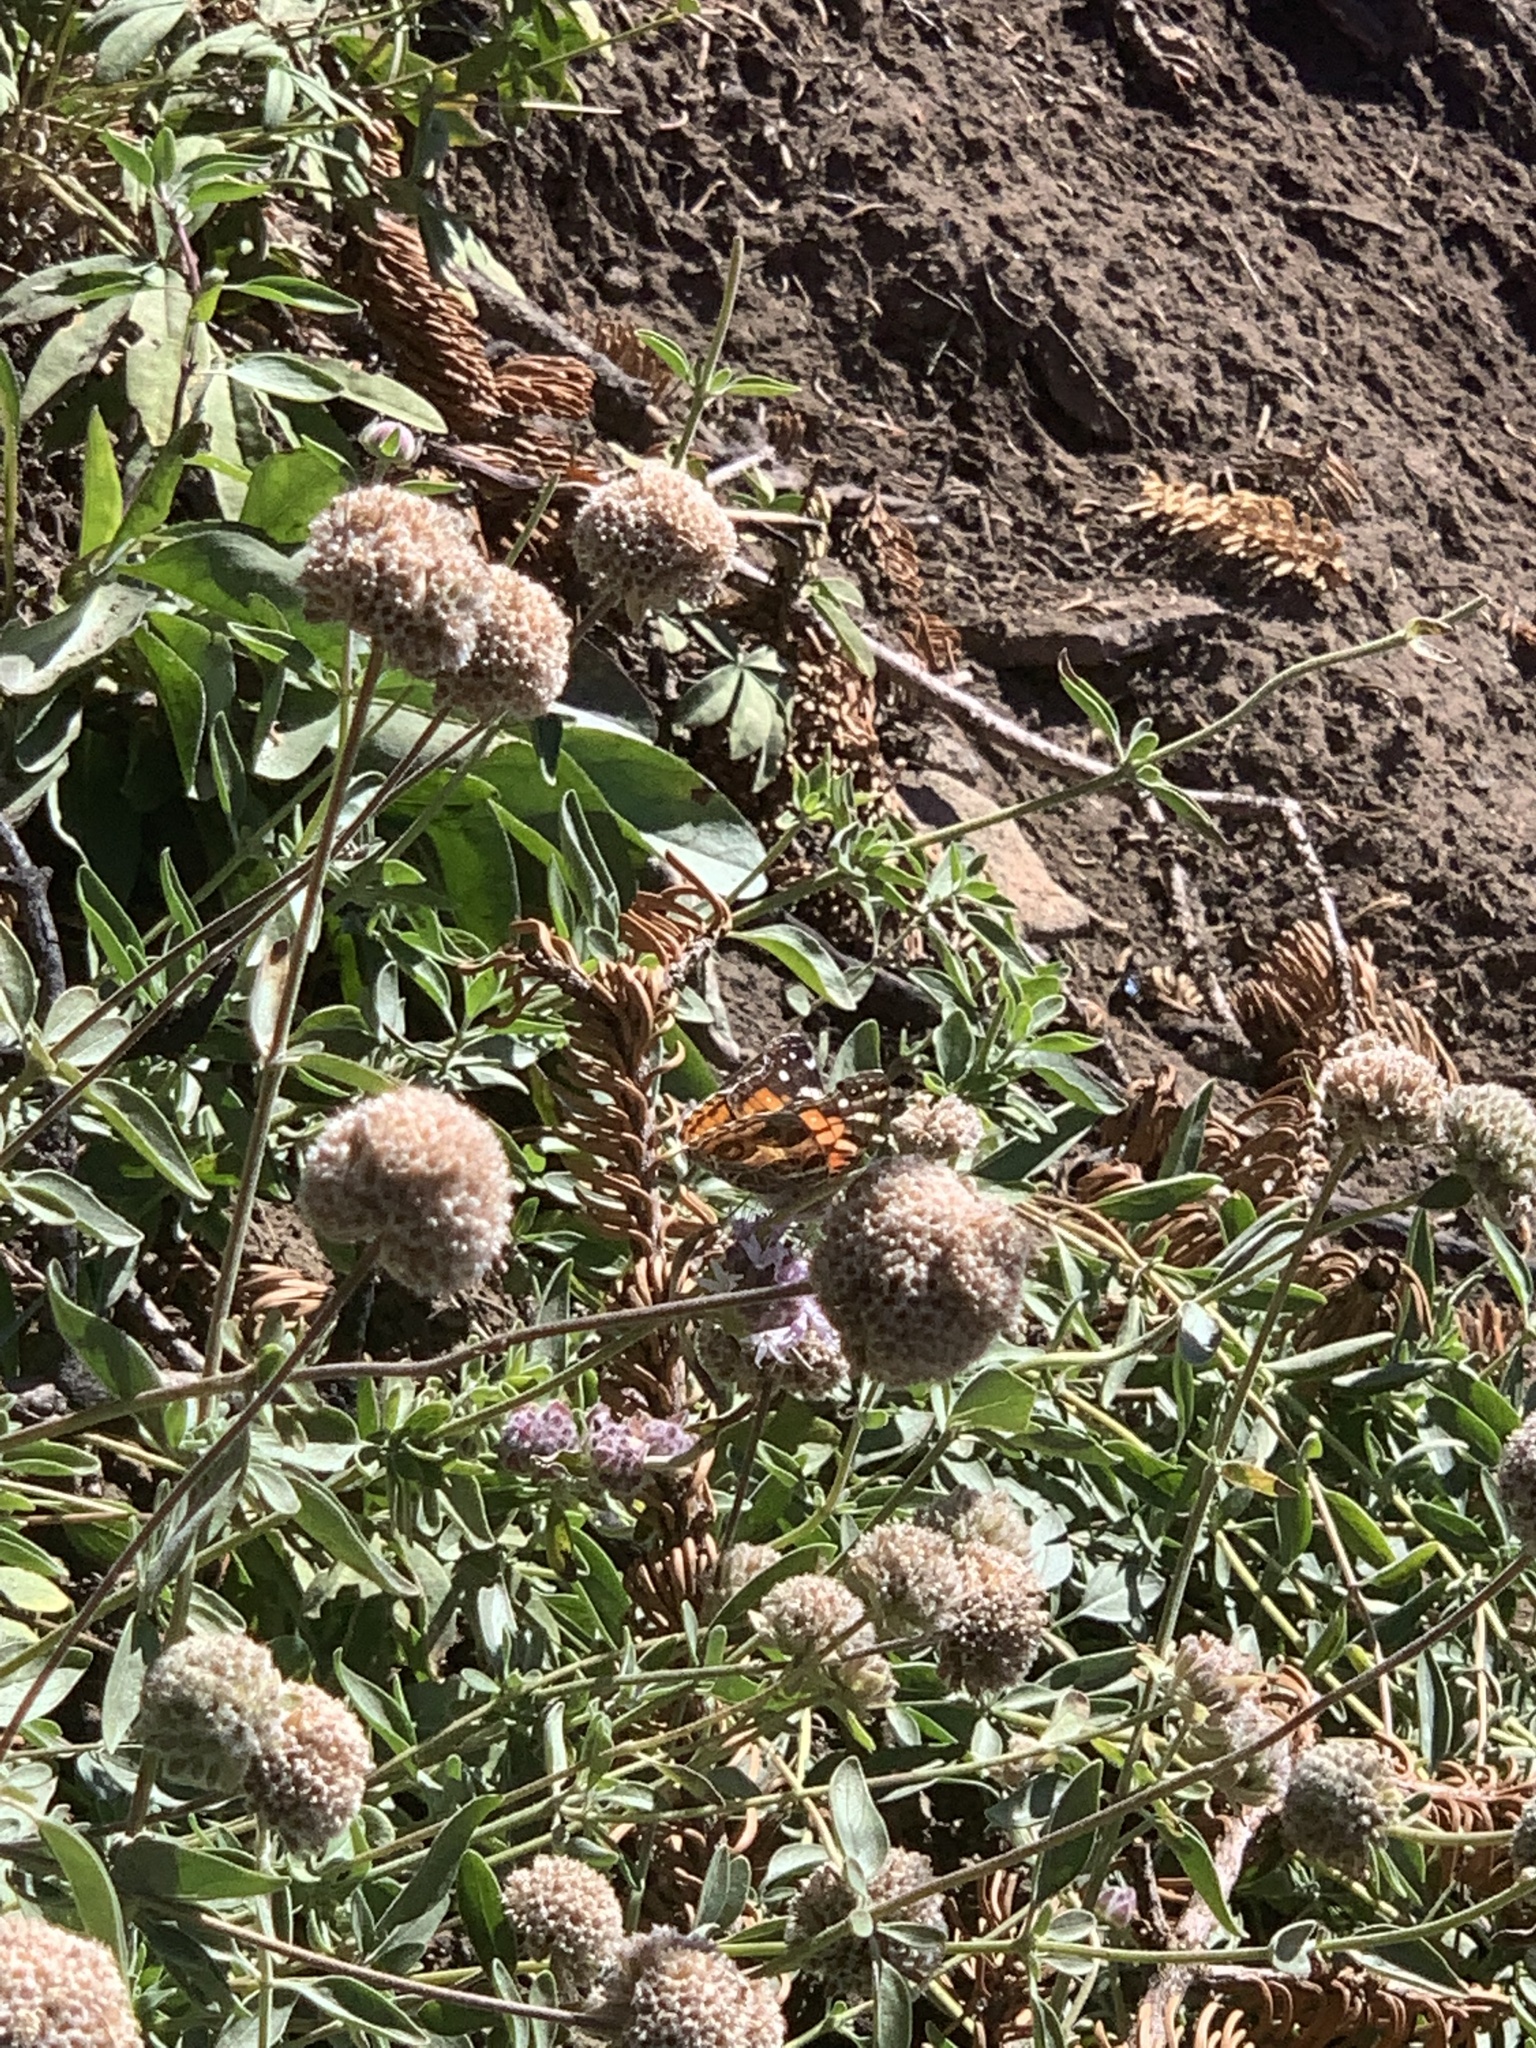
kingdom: Animalia
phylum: Arthropoda
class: Insecta
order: Lepidoptera
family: Nymphalidae
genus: Vanessa
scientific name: Vanessa virginiensis
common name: American lady
